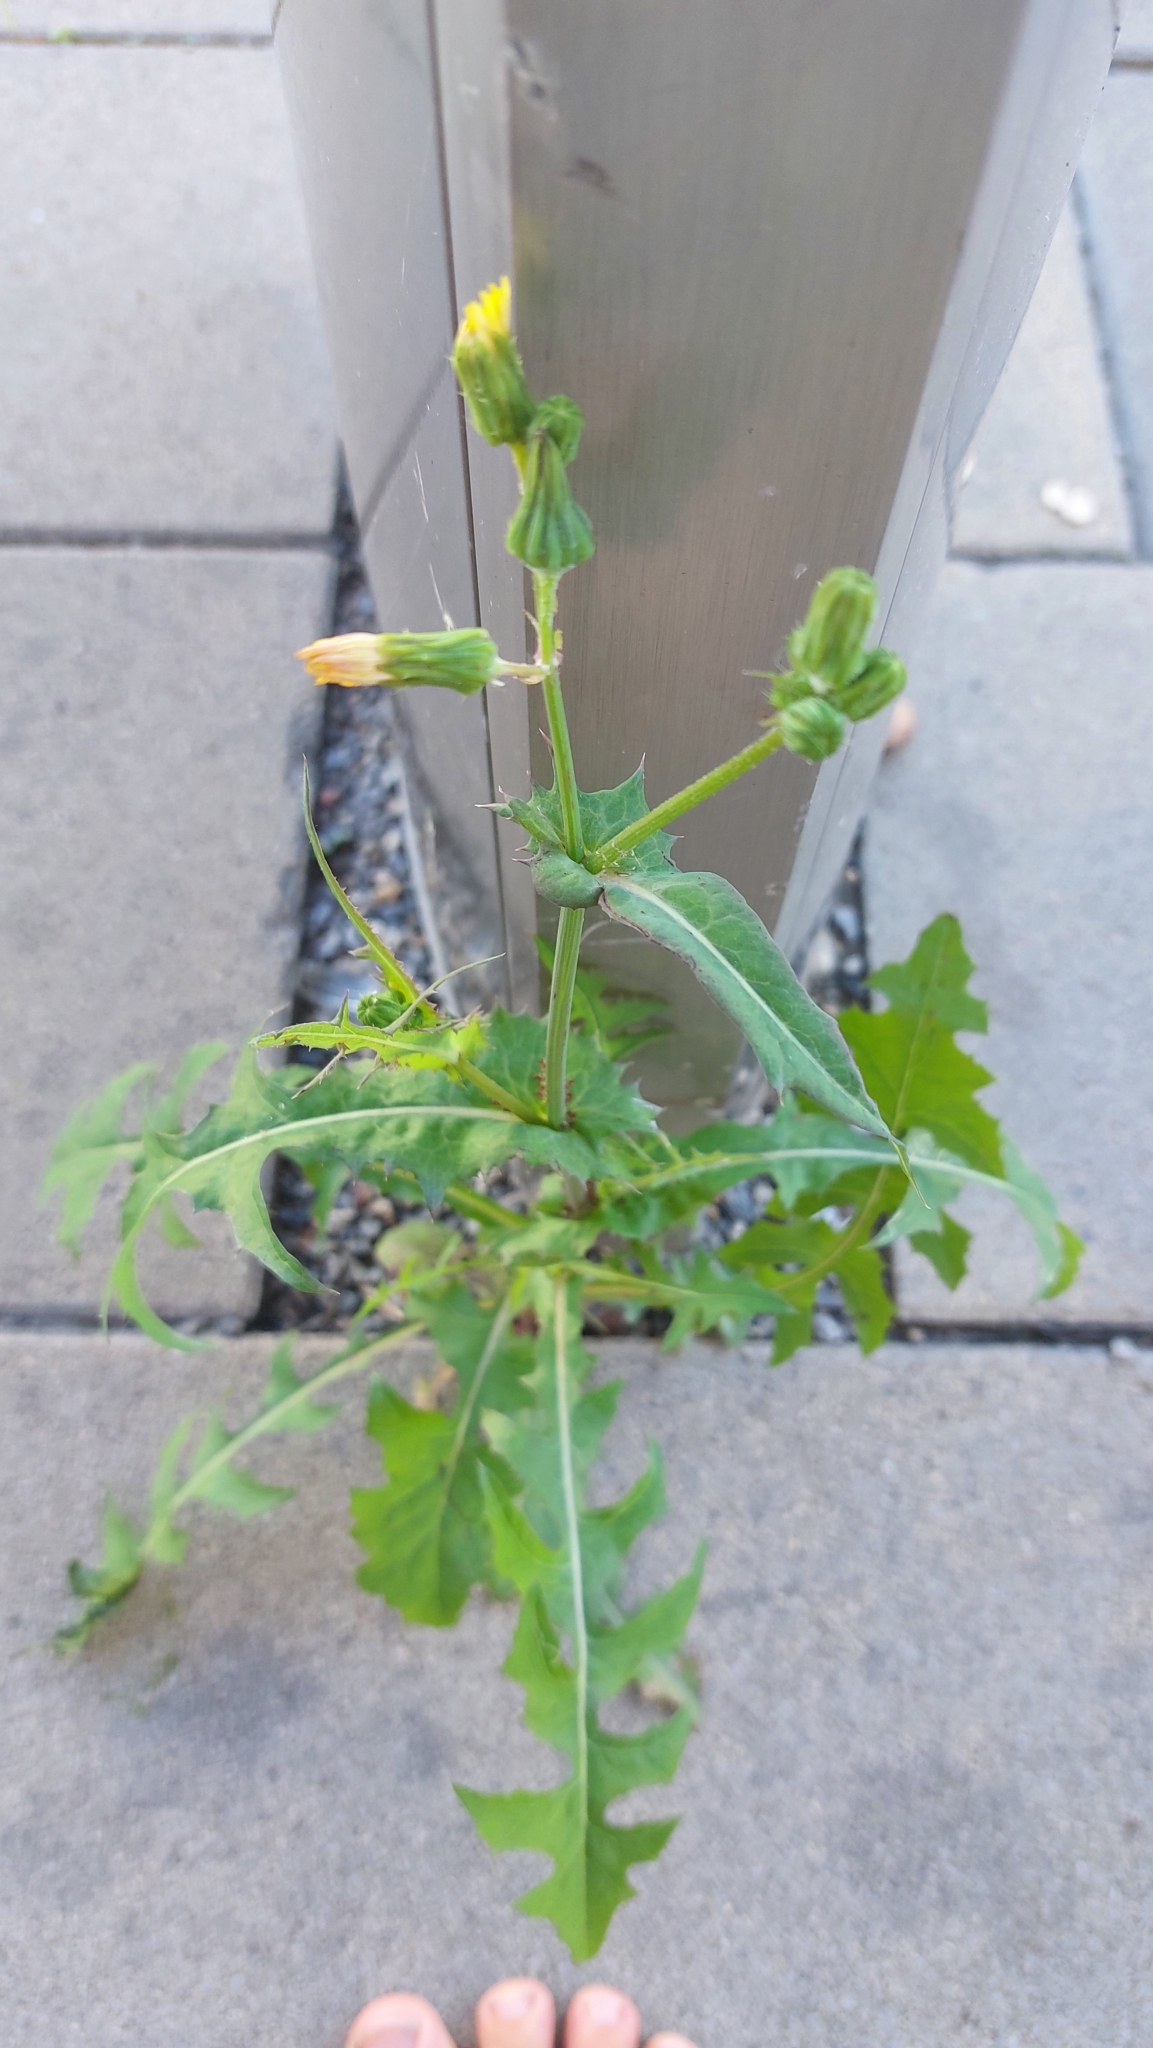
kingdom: Plantae
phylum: Tracheophyta
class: Magnoliopsida
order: Asterales
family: Asteraceae
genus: Sonchus
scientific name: Sonchus oleraceus
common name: Common sowthistle
